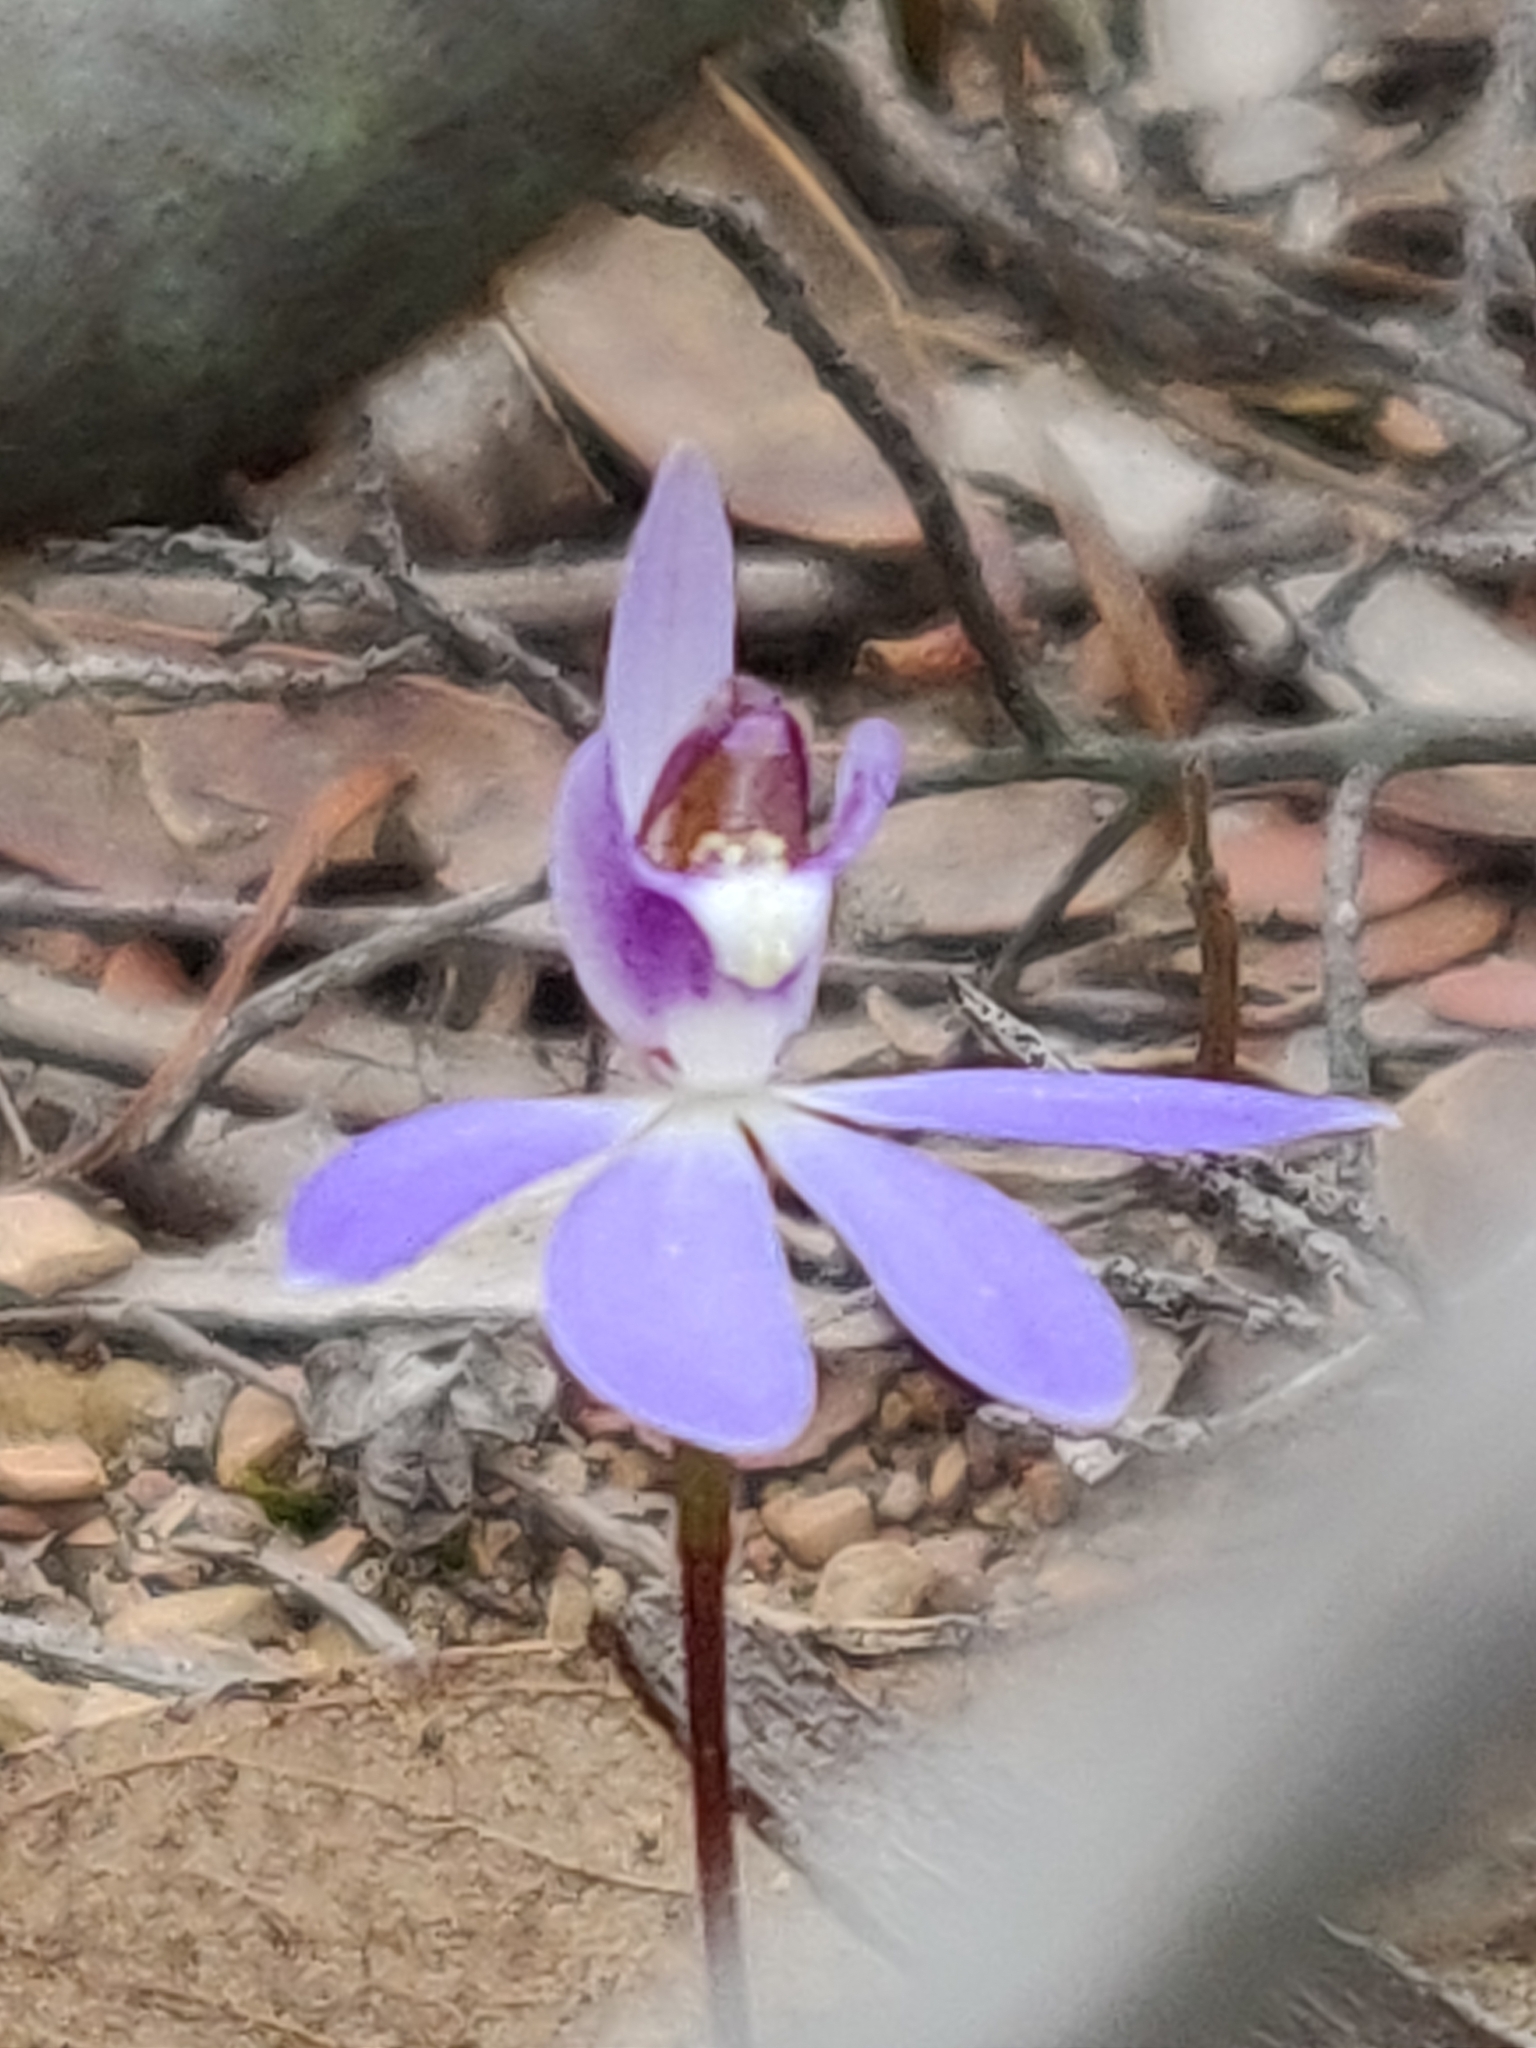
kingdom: Plantae
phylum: Tracheophyta
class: Liliopsida
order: Asparagales
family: Orchidaceae
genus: Caladenia
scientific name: Caladenia caerulea
